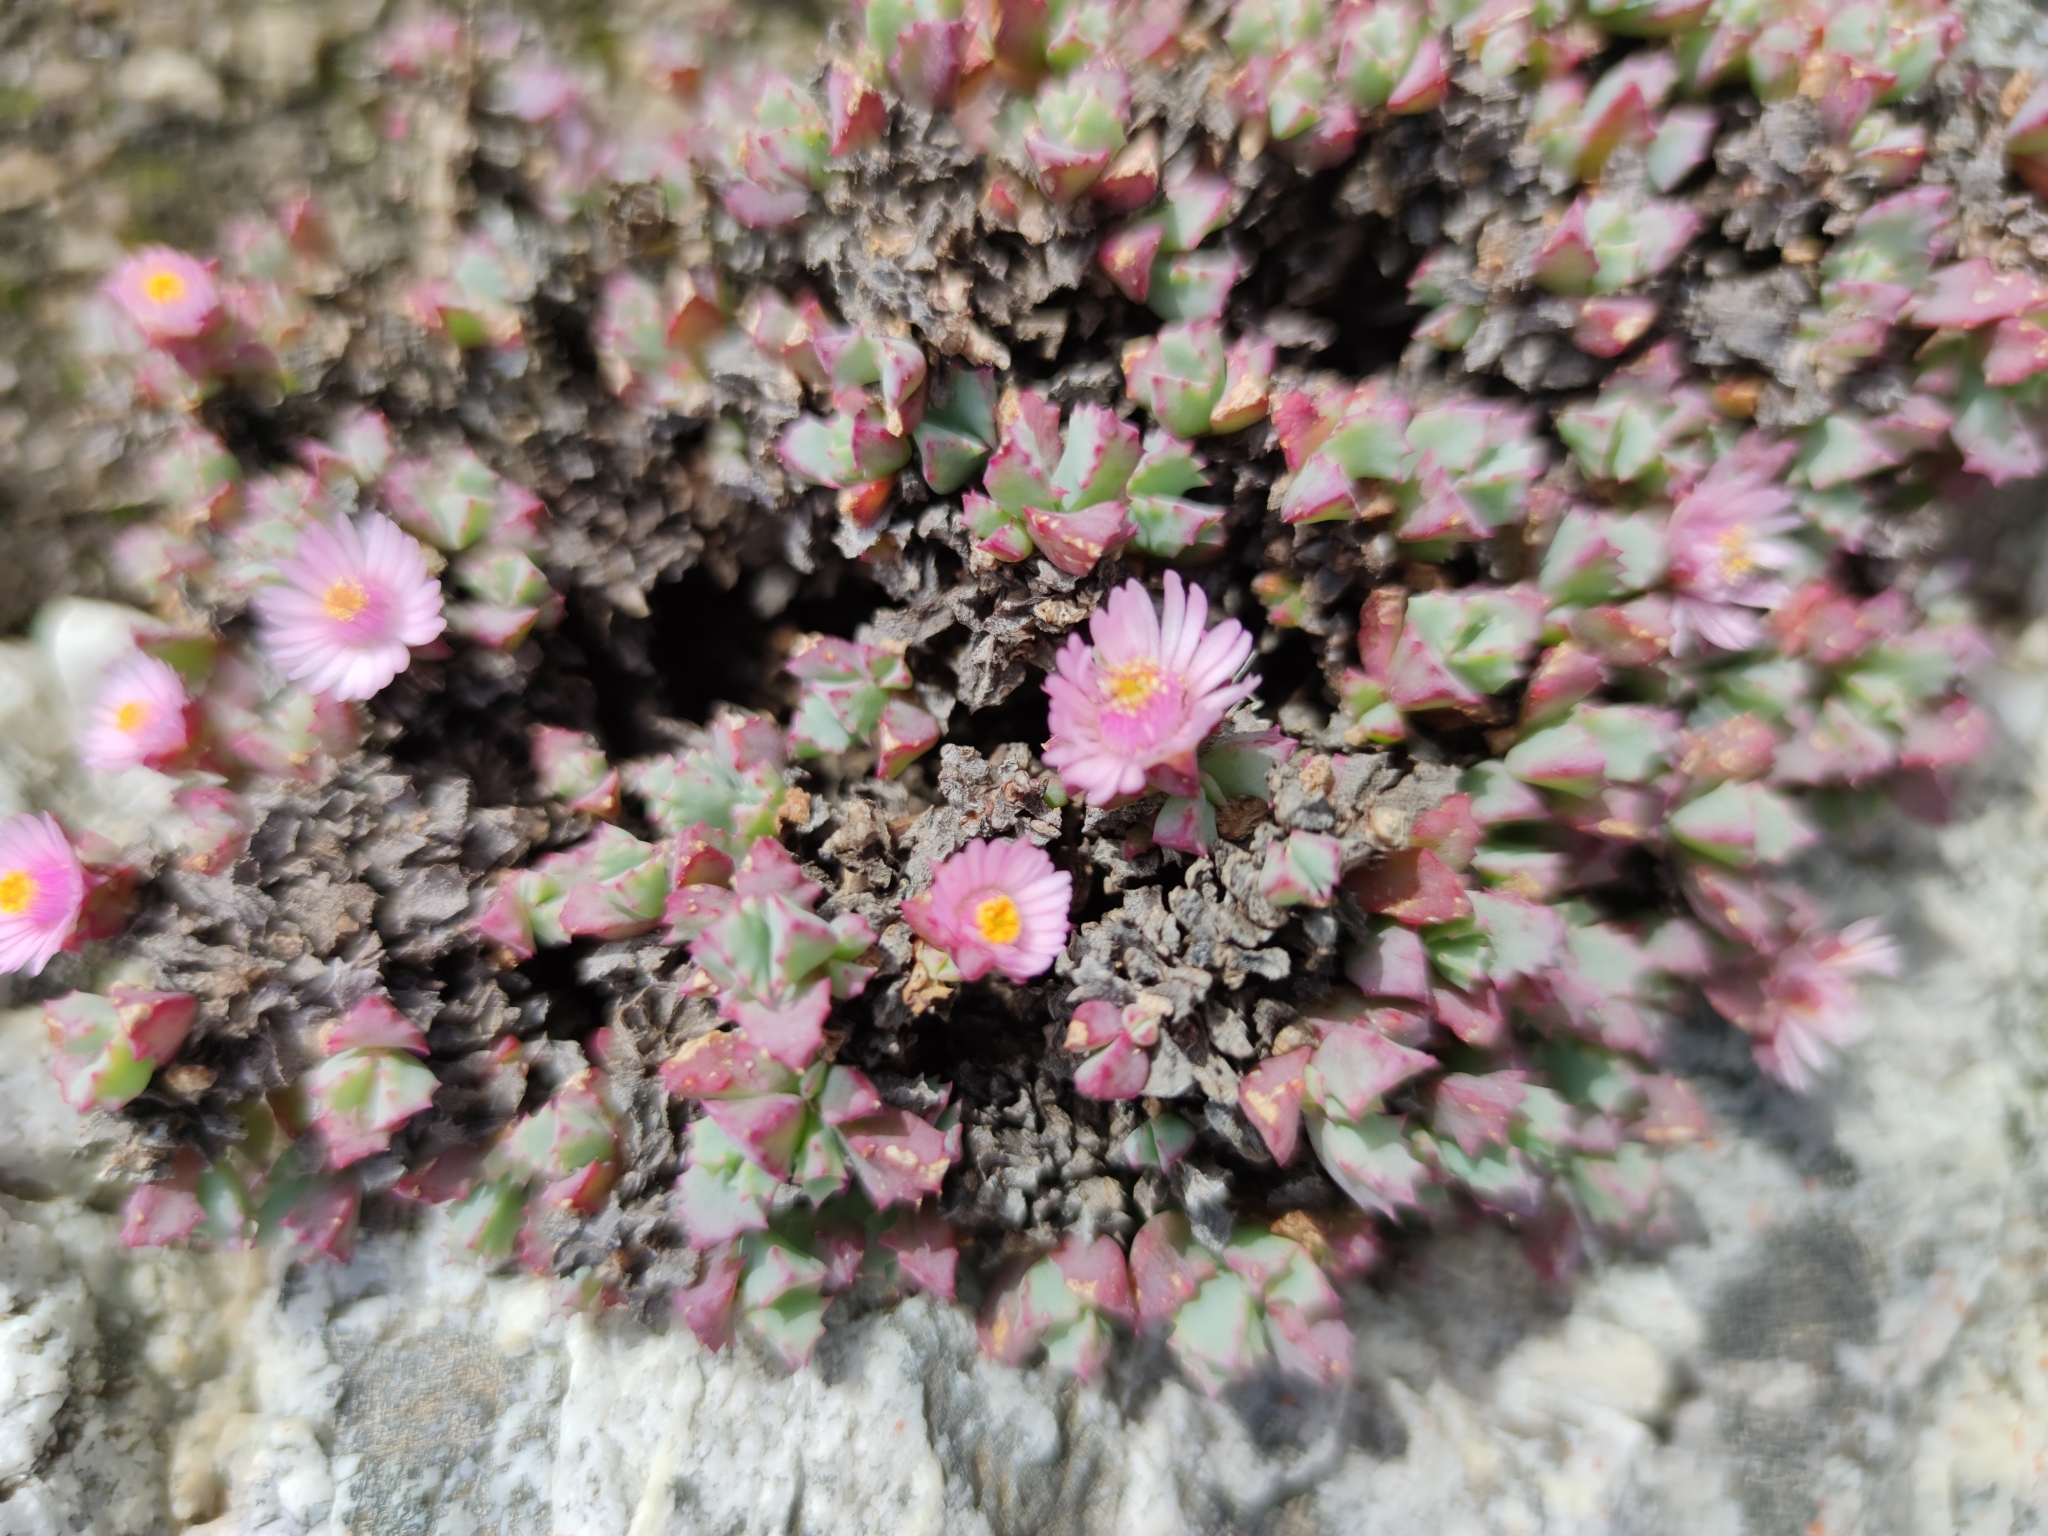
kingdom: Plantae
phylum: Tracheophyta
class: Magnoliopsida
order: Caryophyllales
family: Aizoaceae
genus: Oscularia
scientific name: Oscularia deltoides
